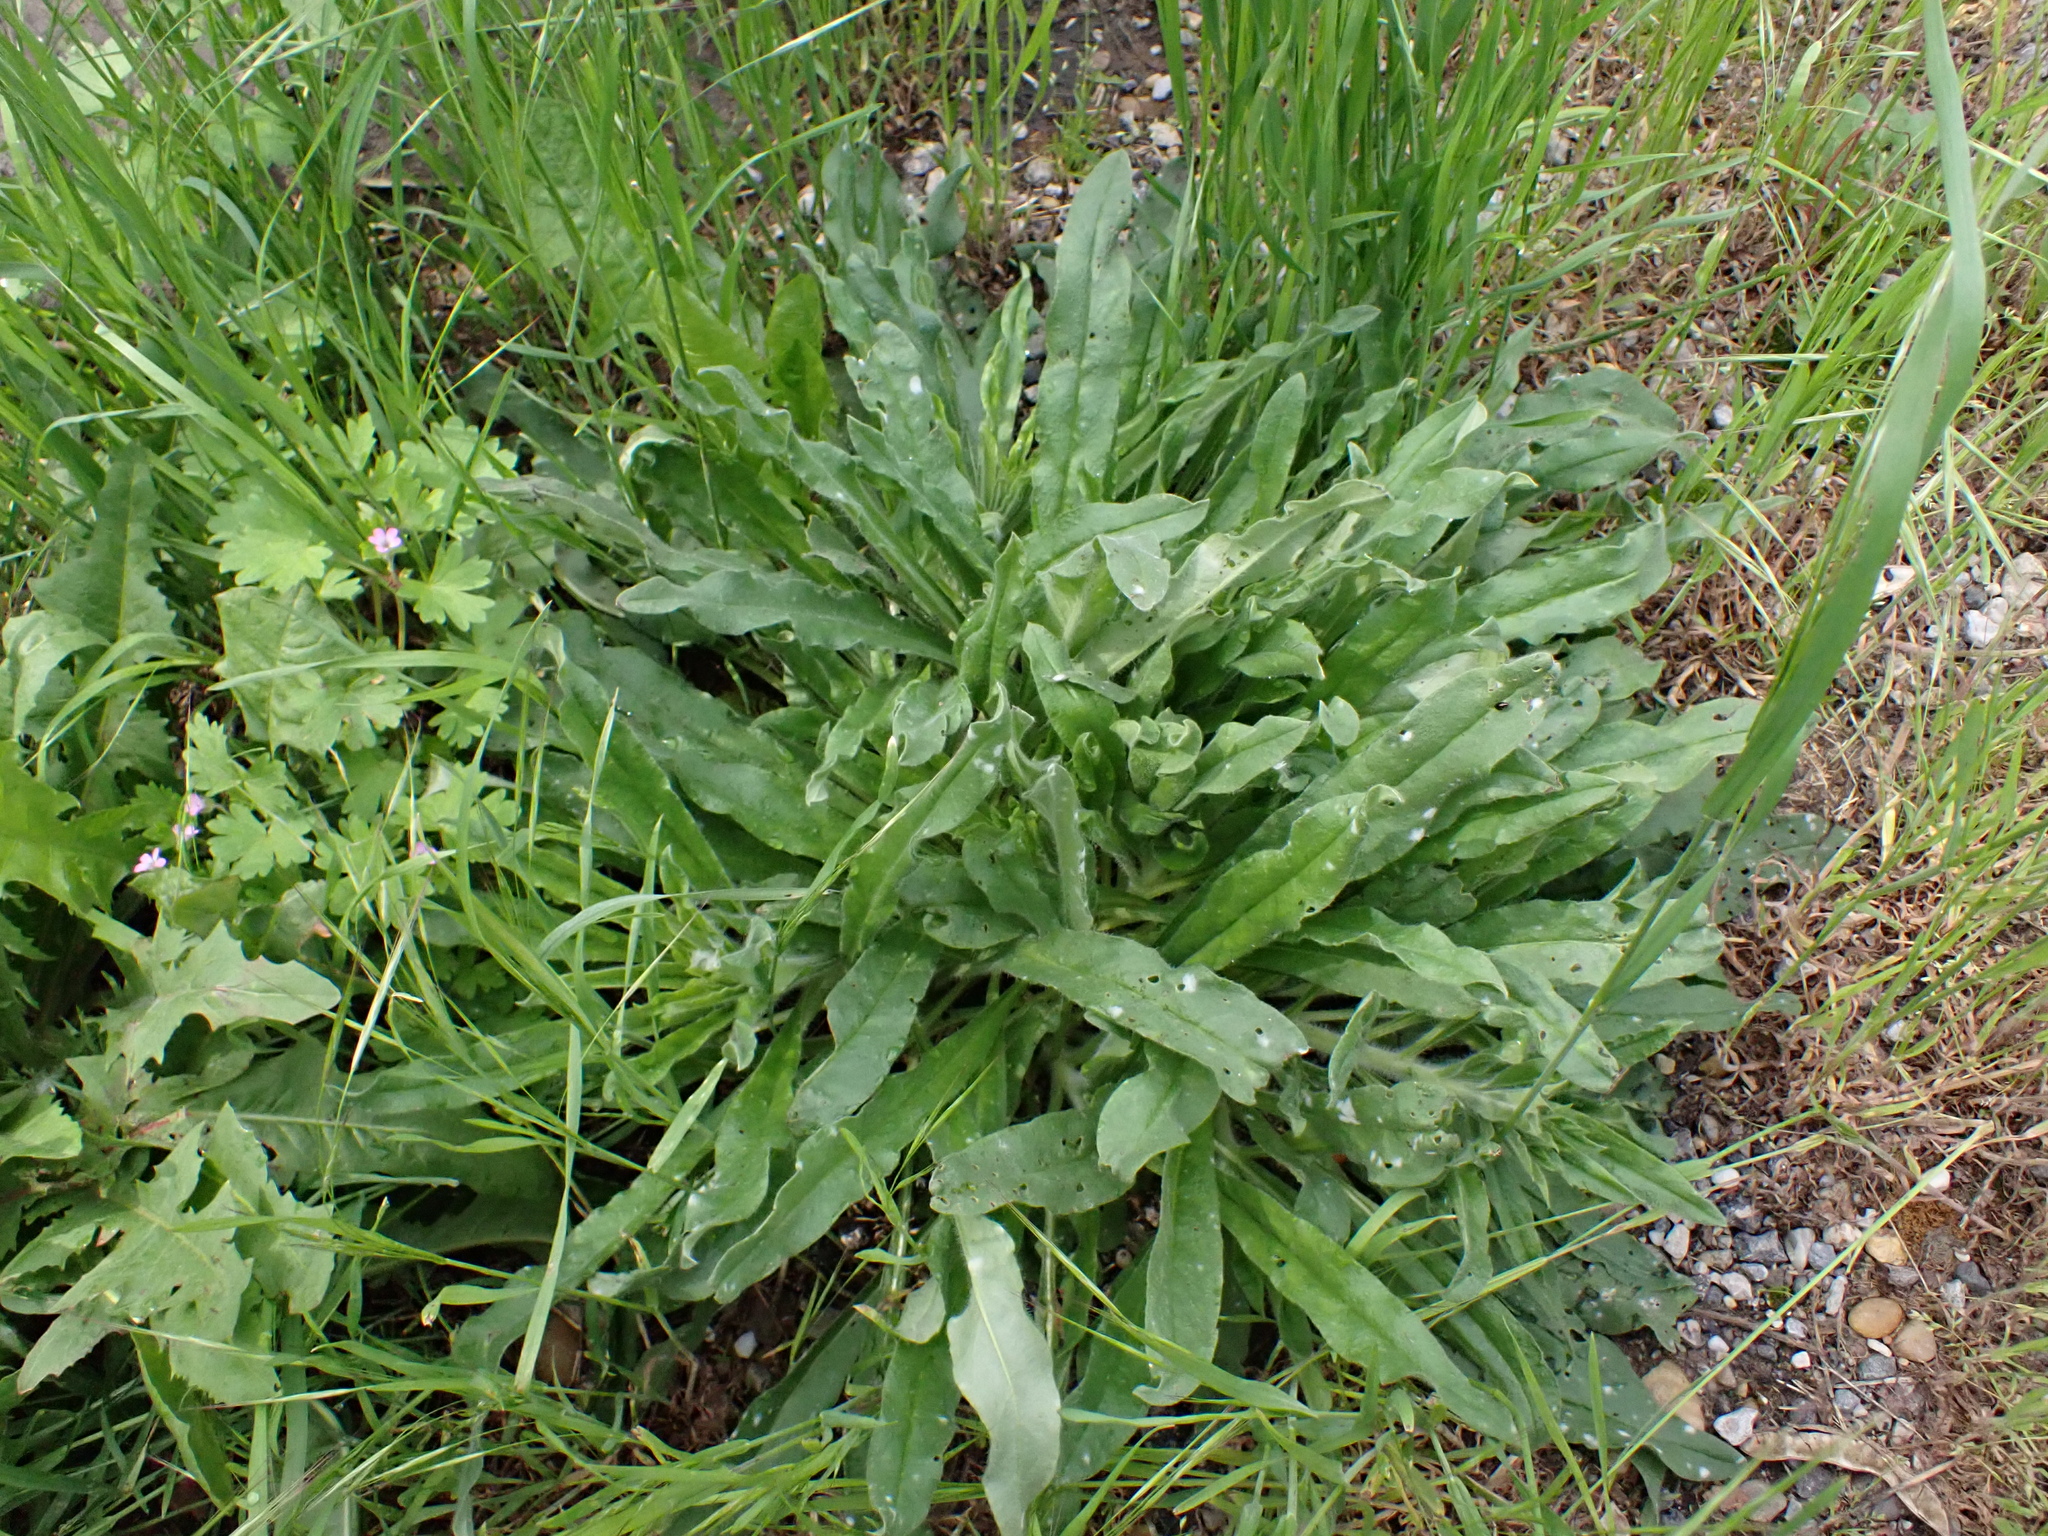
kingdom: Plantae
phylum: Tracheophyta
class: Magnoliopsida
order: Boraginales
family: Boraginaceae
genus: Echium
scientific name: Echium vulgare
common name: Common viper's bugloss
